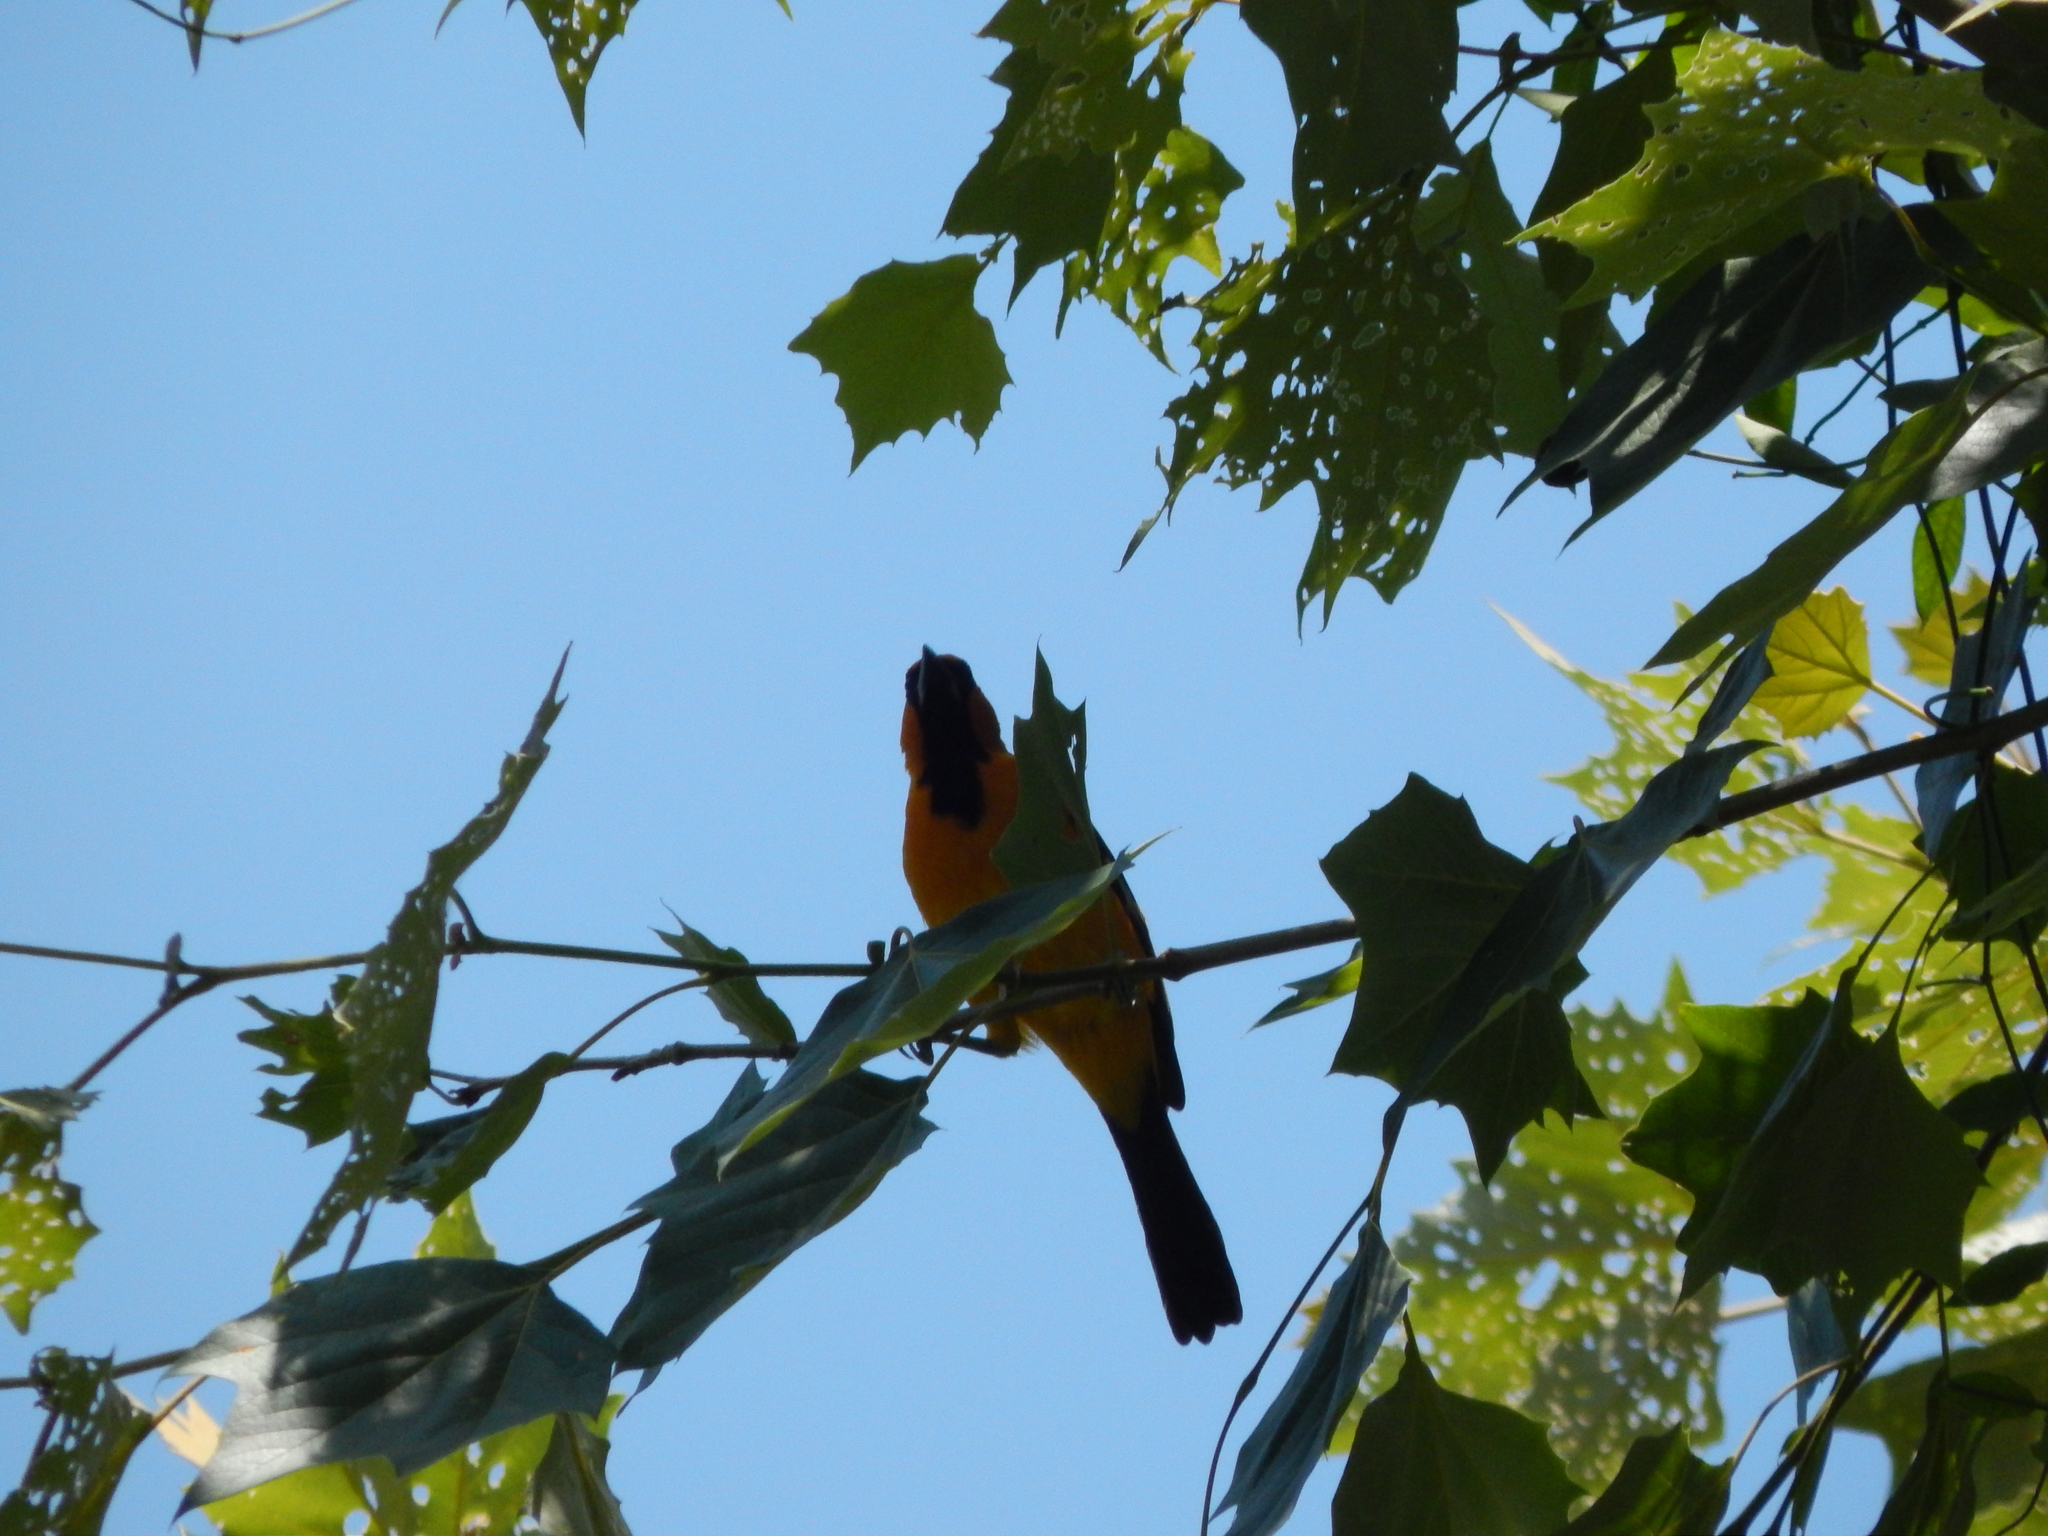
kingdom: Animalia
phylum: Chordata
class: Aves
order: Passeriformes
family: Icteridae
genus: Icterus
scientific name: Icterus gularis
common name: Altamira oriole
